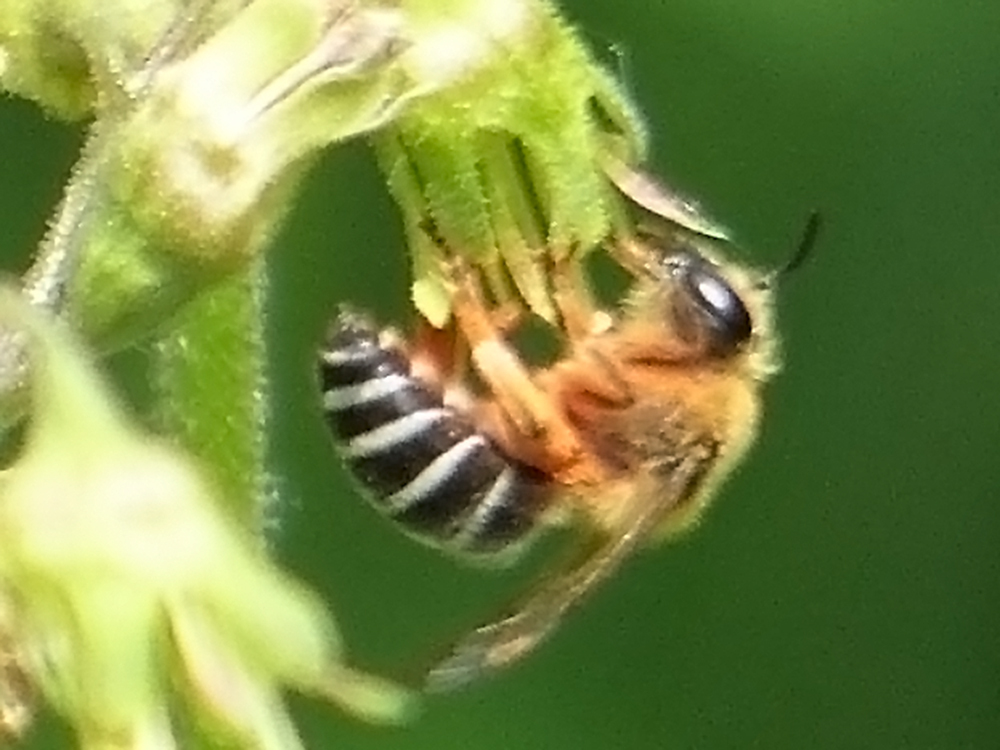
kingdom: Animalia
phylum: Arthropoda
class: Insecta
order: Hymenoptera
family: Colletidae
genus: Colletes
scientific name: Colletes aestivalis
